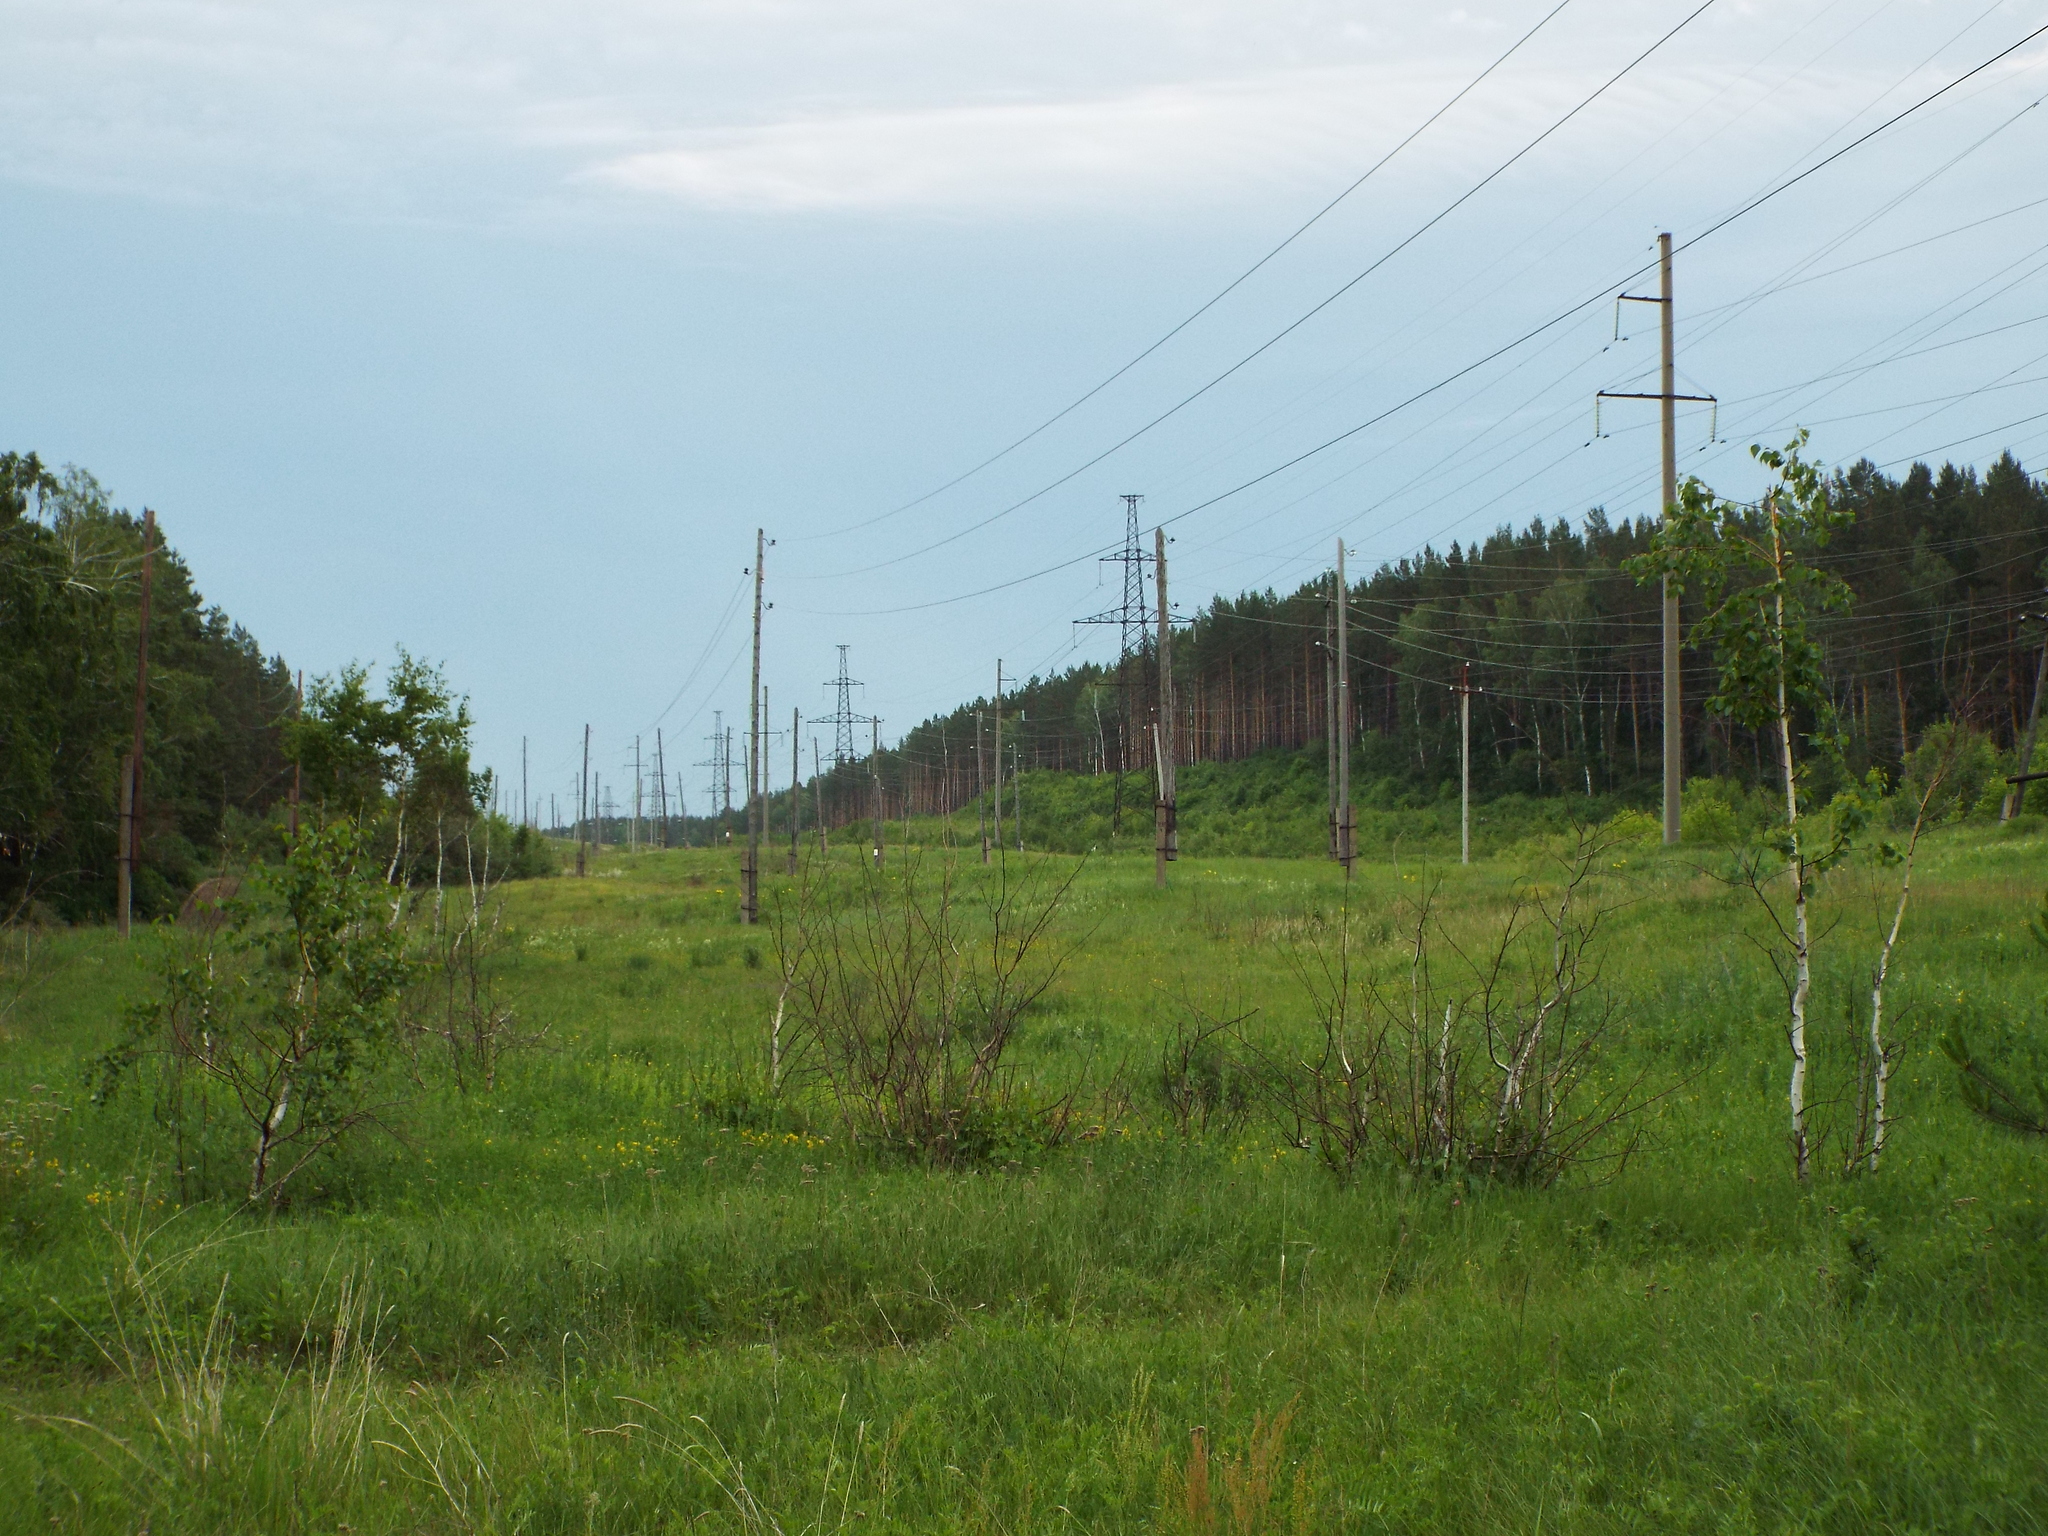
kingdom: Plantae
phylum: Tracheophyta
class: Pinopsida
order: Pinales
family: Pinaceae
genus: Pinus
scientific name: Pinus sylvestris
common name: Scots pine
